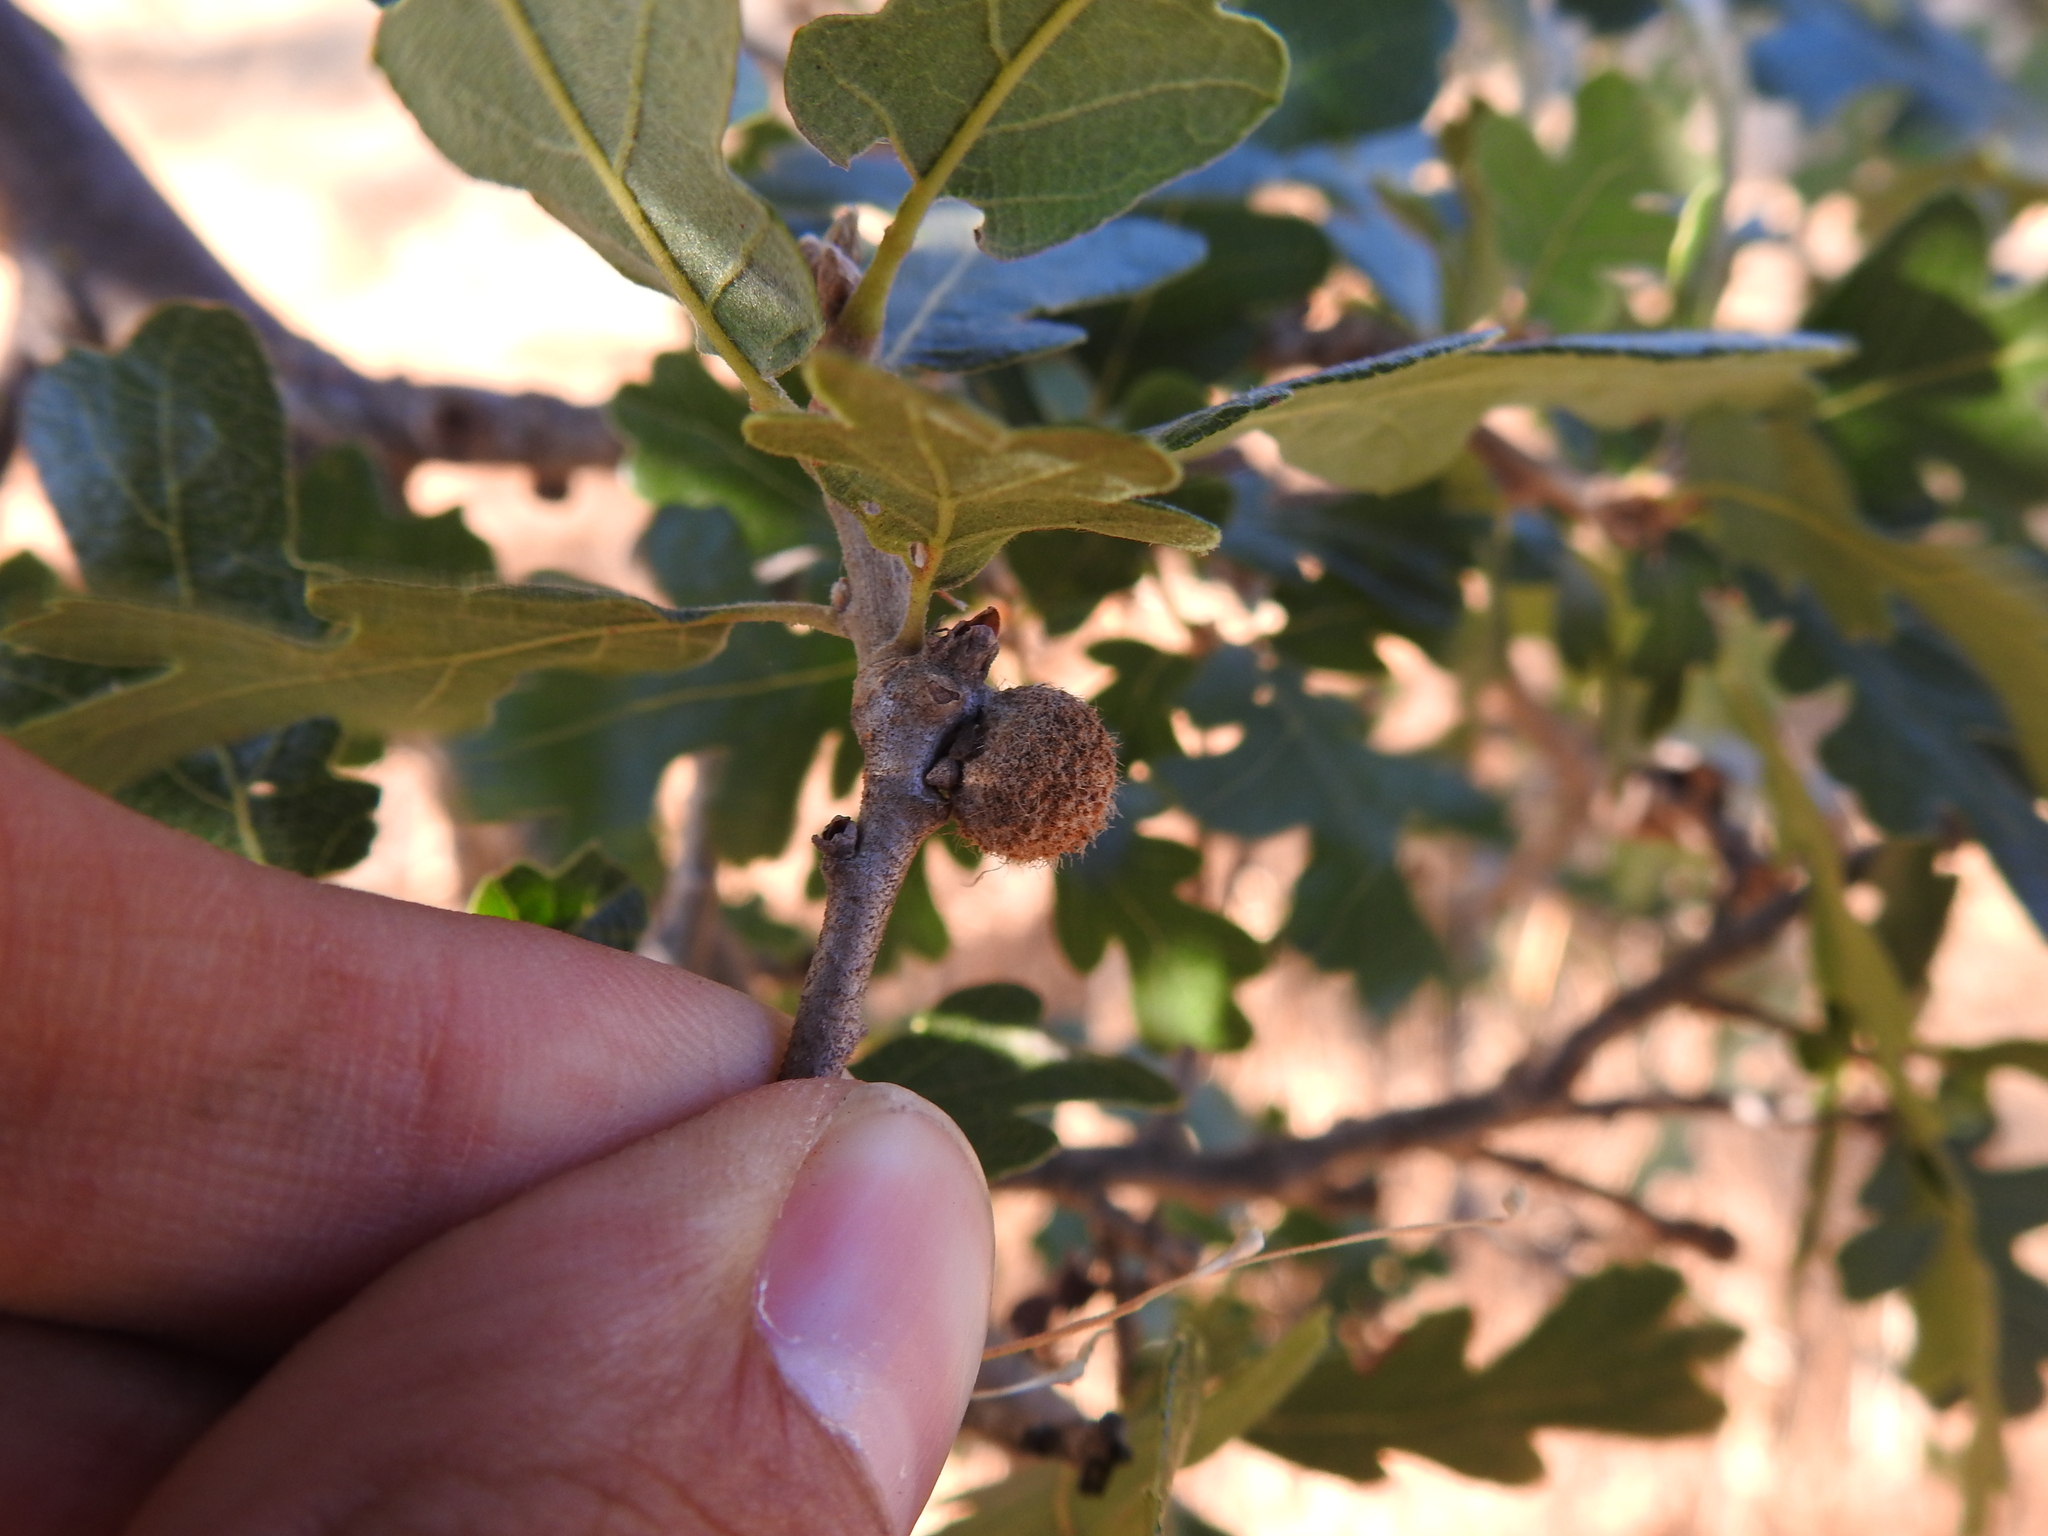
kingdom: Animalia
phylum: Arthropoda
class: Insecta
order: Hymenoptera
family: Cynipidae
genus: Burnettweldia
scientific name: Burnettweldia
